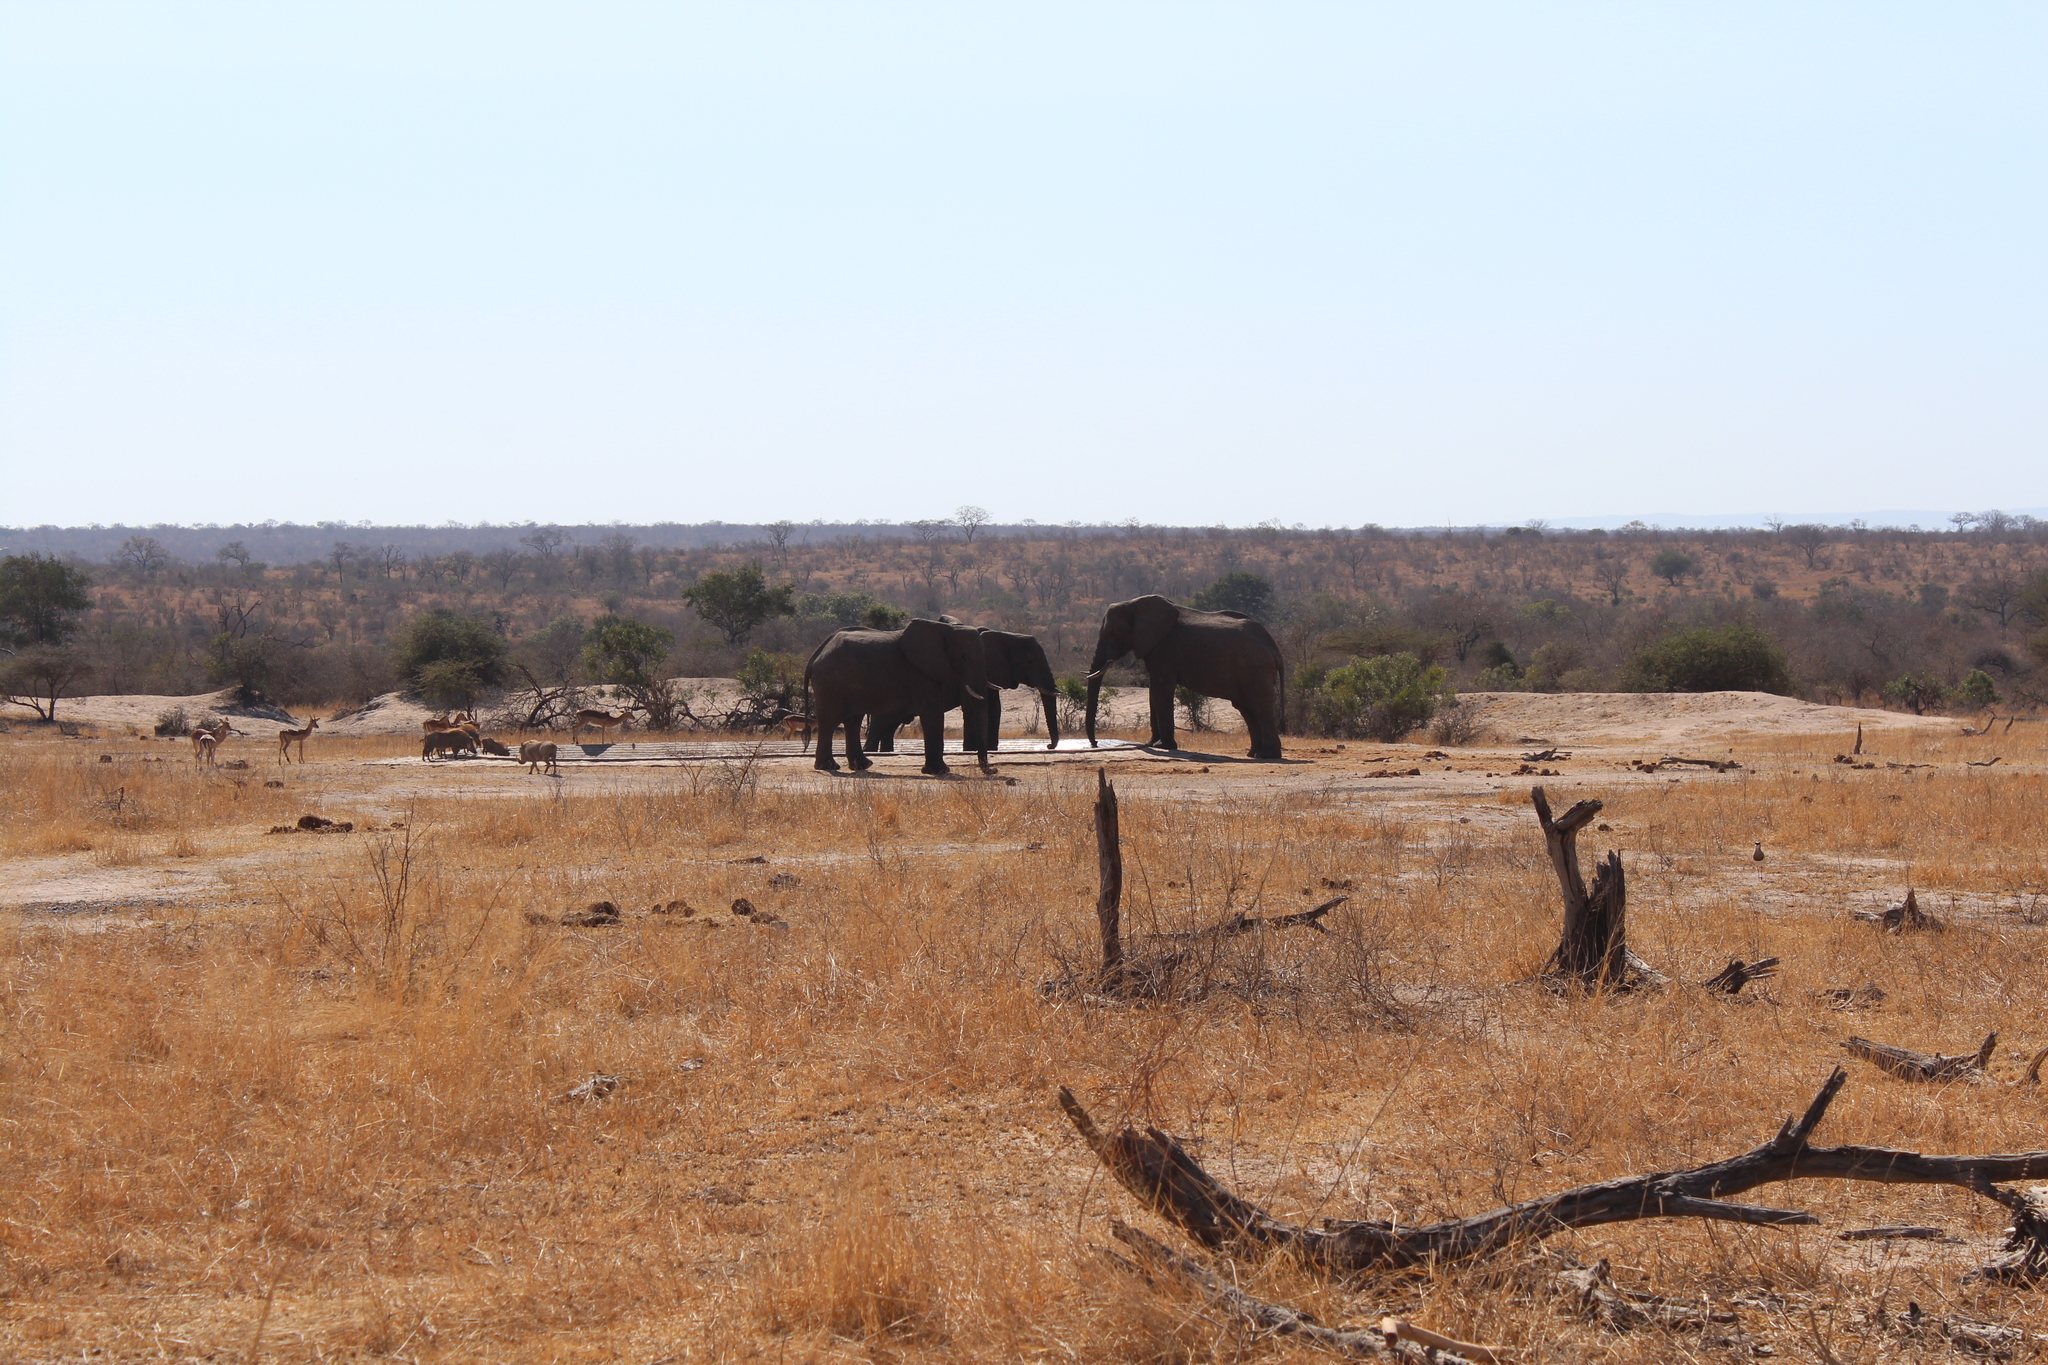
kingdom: Animalia
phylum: Chordata
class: Mammalia
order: Proboscidea
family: Elephantidae
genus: Loxodonta
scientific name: Loxodonta africana
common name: African elephant
